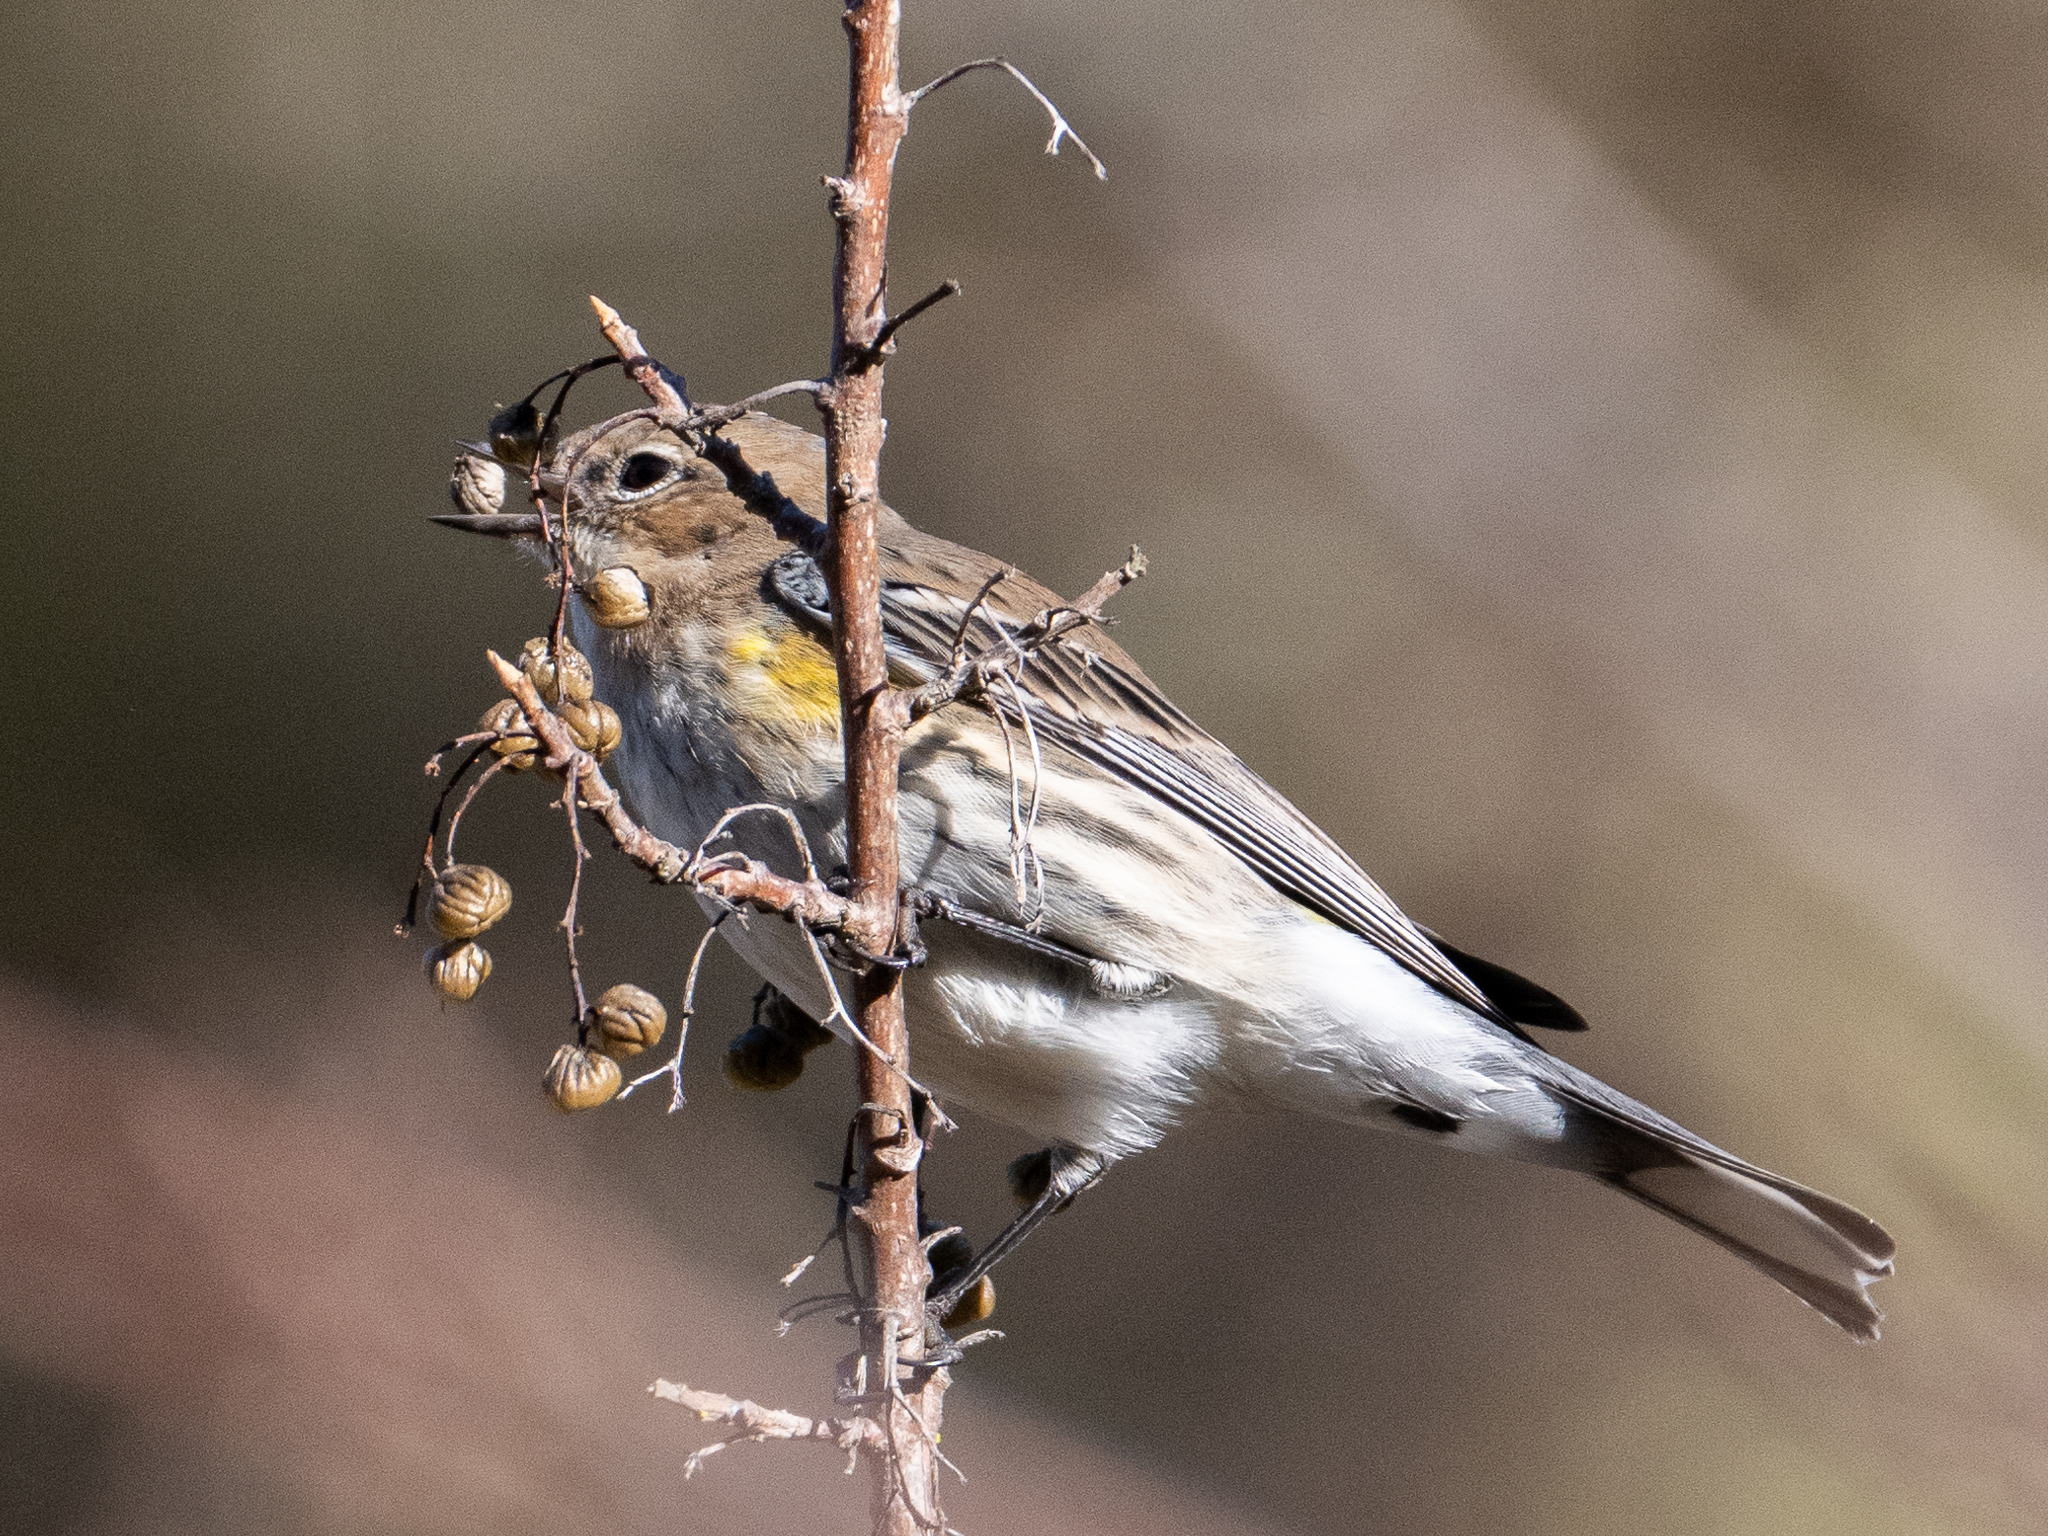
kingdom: Animalia
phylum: Chordata
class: Aves
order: Passeriformes
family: Parulidae
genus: Setophaga
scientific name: Setophaga coronata
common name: Myrtle warbler
